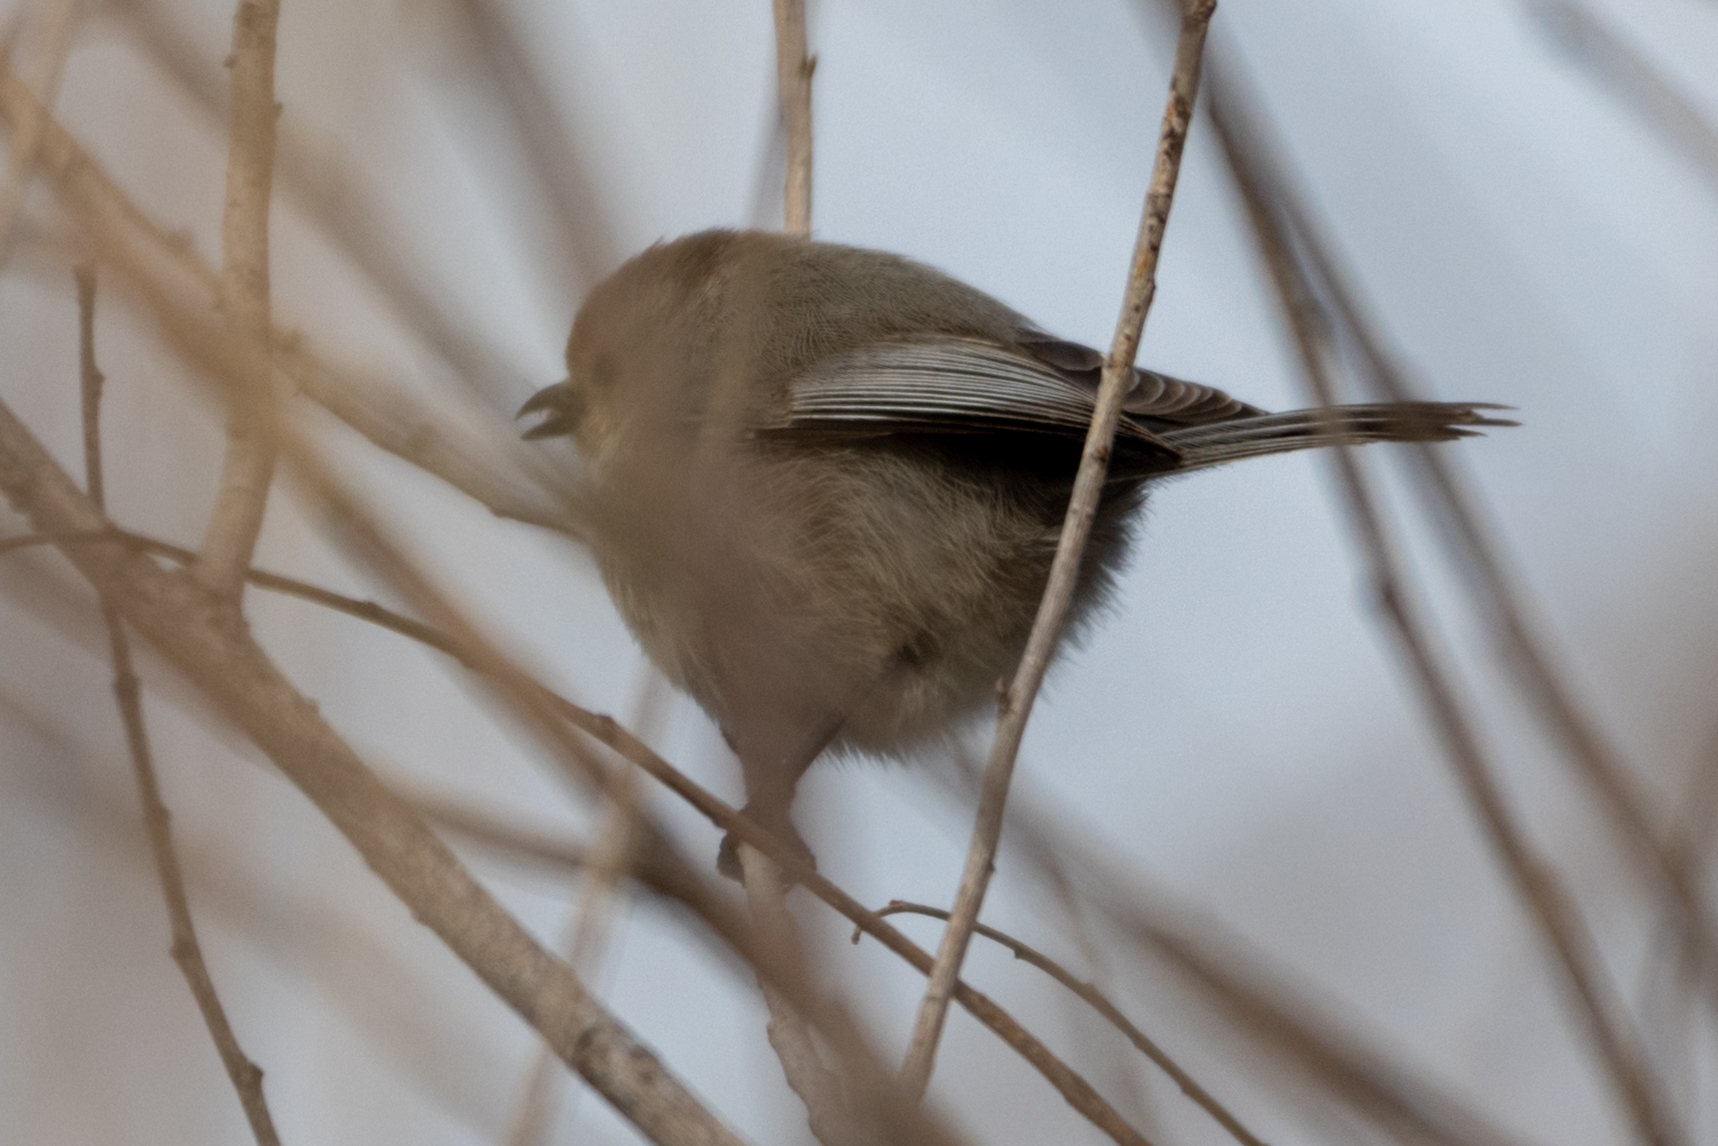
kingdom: Animalia
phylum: Chordata
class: Aves
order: Passeriformes
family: Aegithalidae
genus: Psaltriparus
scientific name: Psaltriparus minimus
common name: American bushtit
